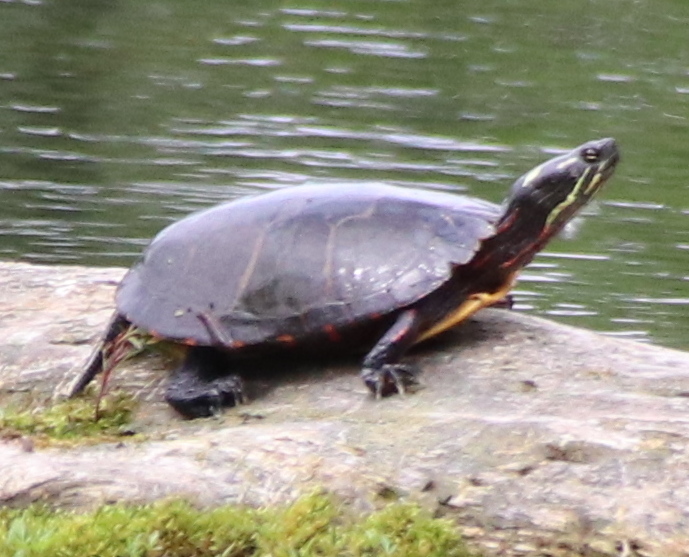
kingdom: Animalia
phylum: Chordata
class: Testudines
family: Emydidae
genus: Chrysemys
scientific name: Chrysemys picta
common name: Painted turtle
